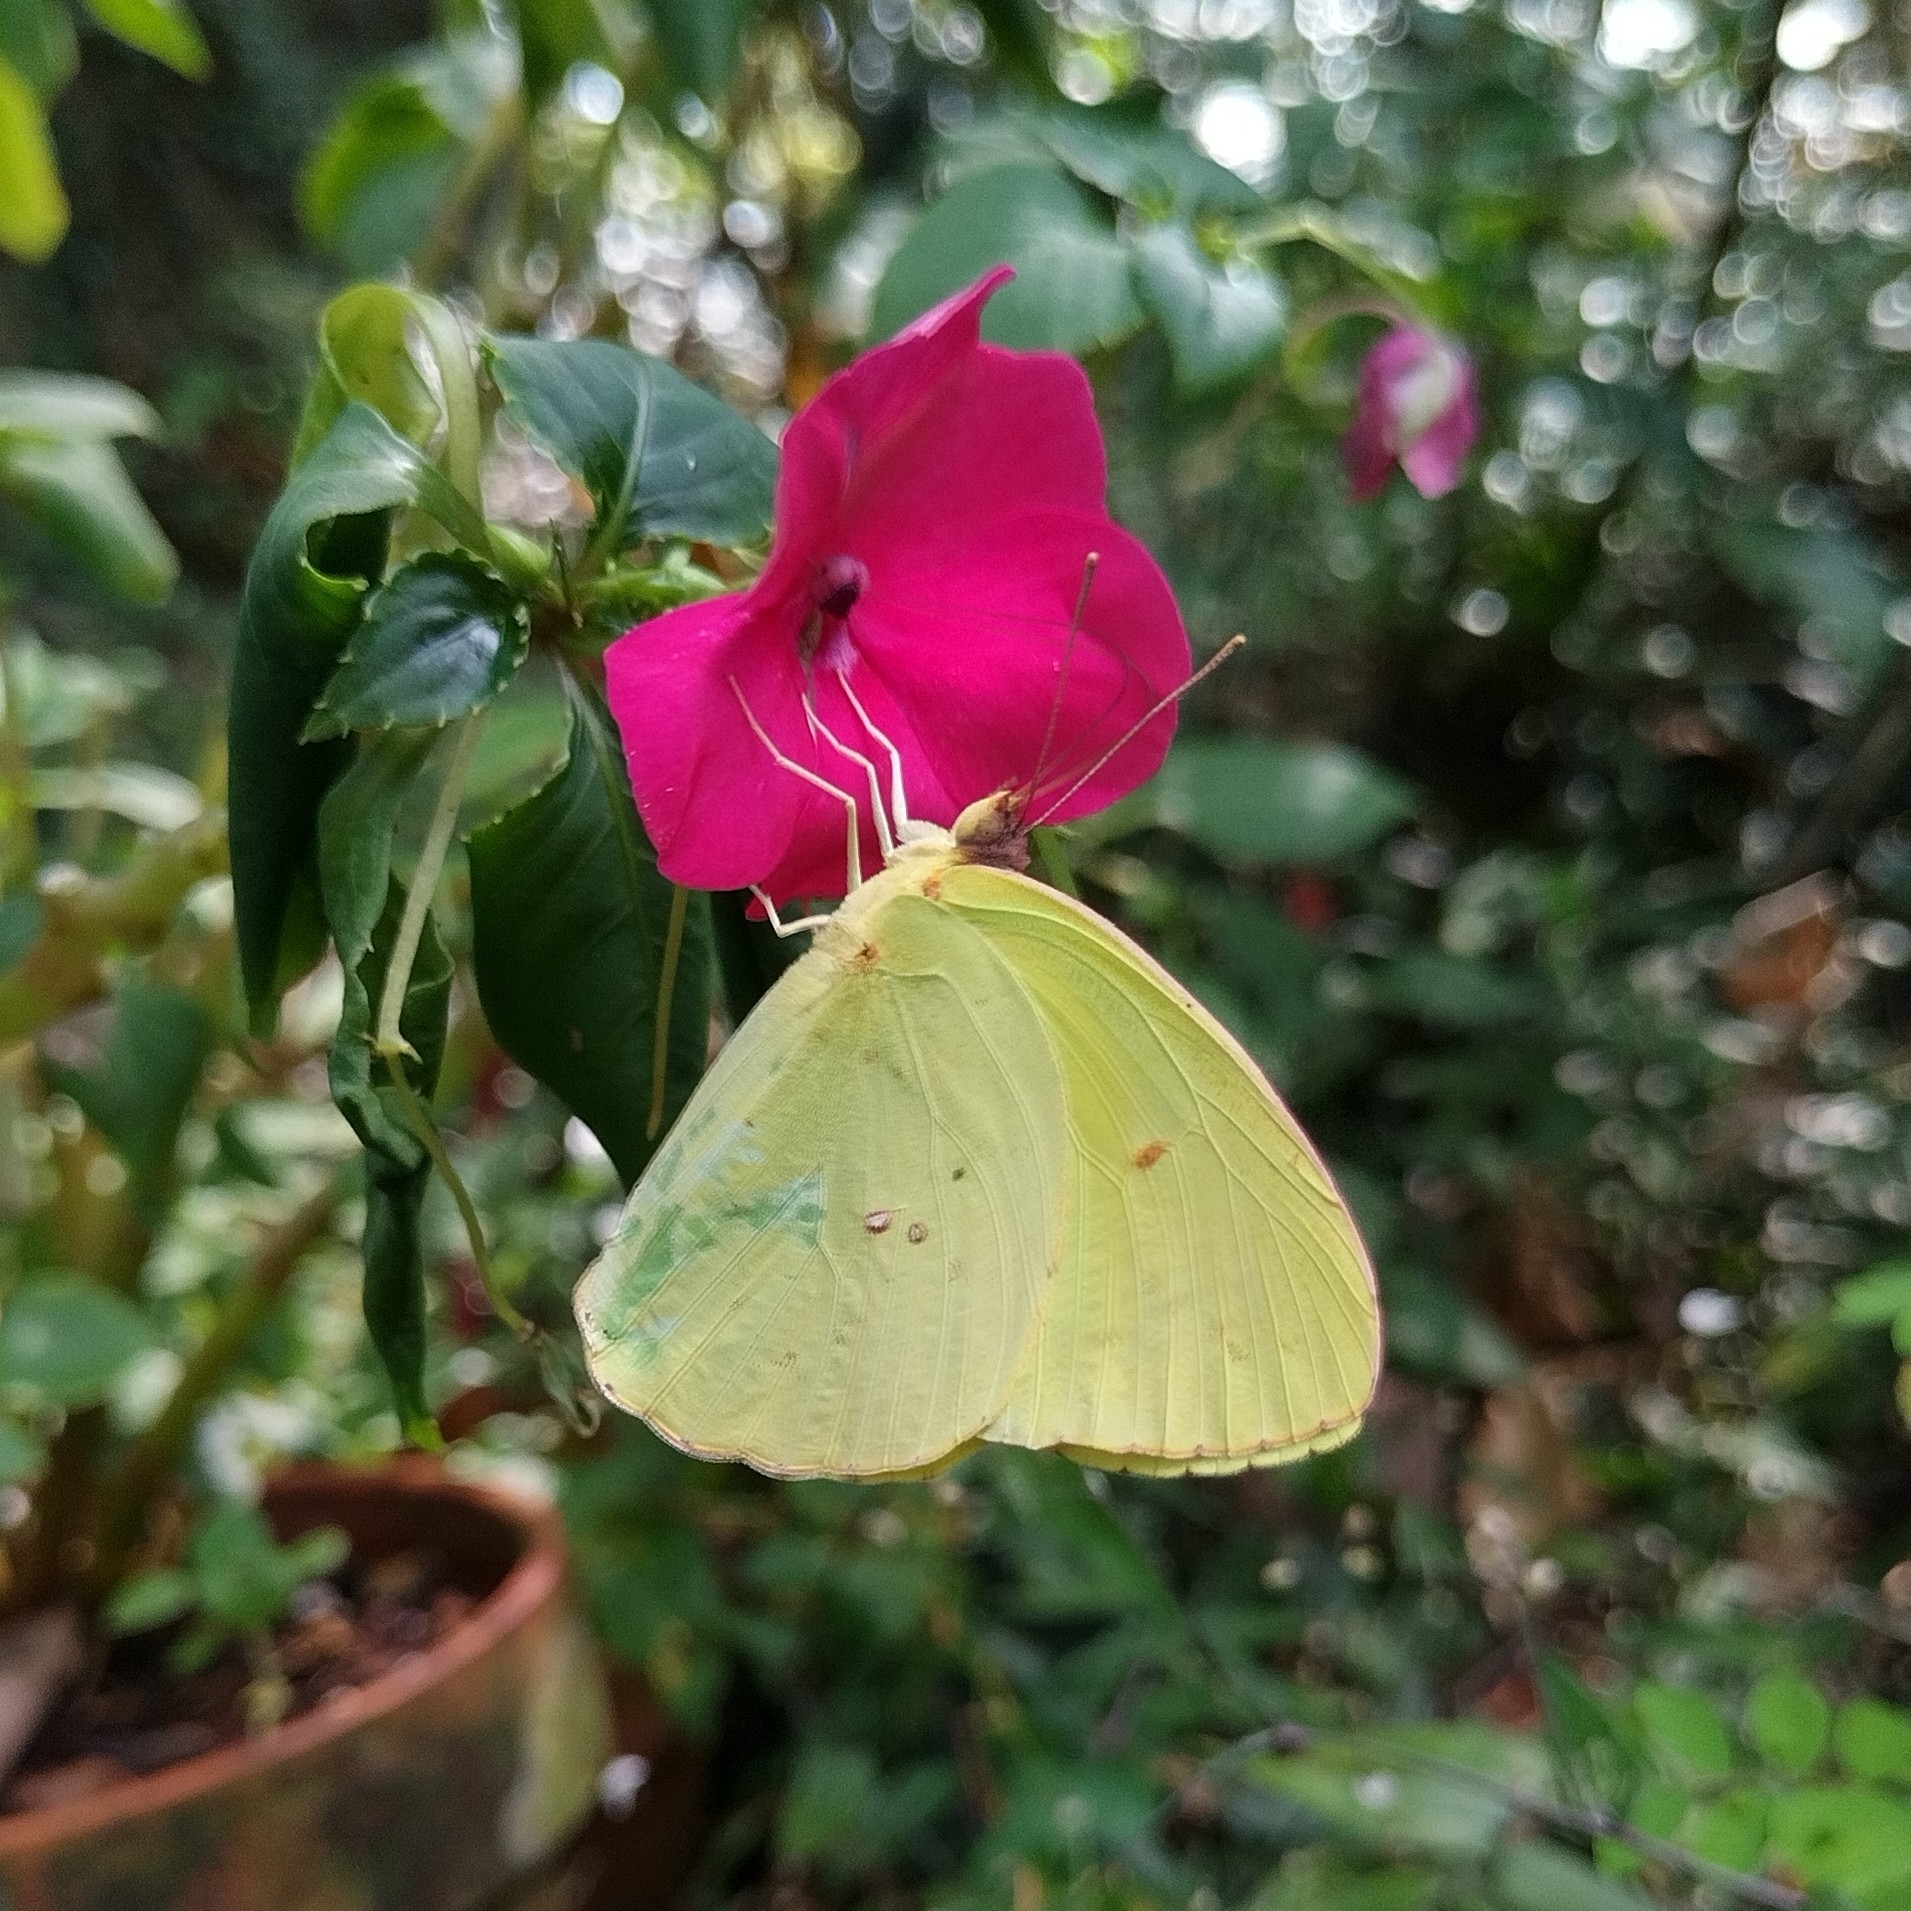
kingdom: Animalia
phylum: Arthropoda
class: Insecta
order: Lepidoptera
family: Pieridae
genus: Phoebis
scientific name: Phoebis sennae
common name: Cloudless sulphur
